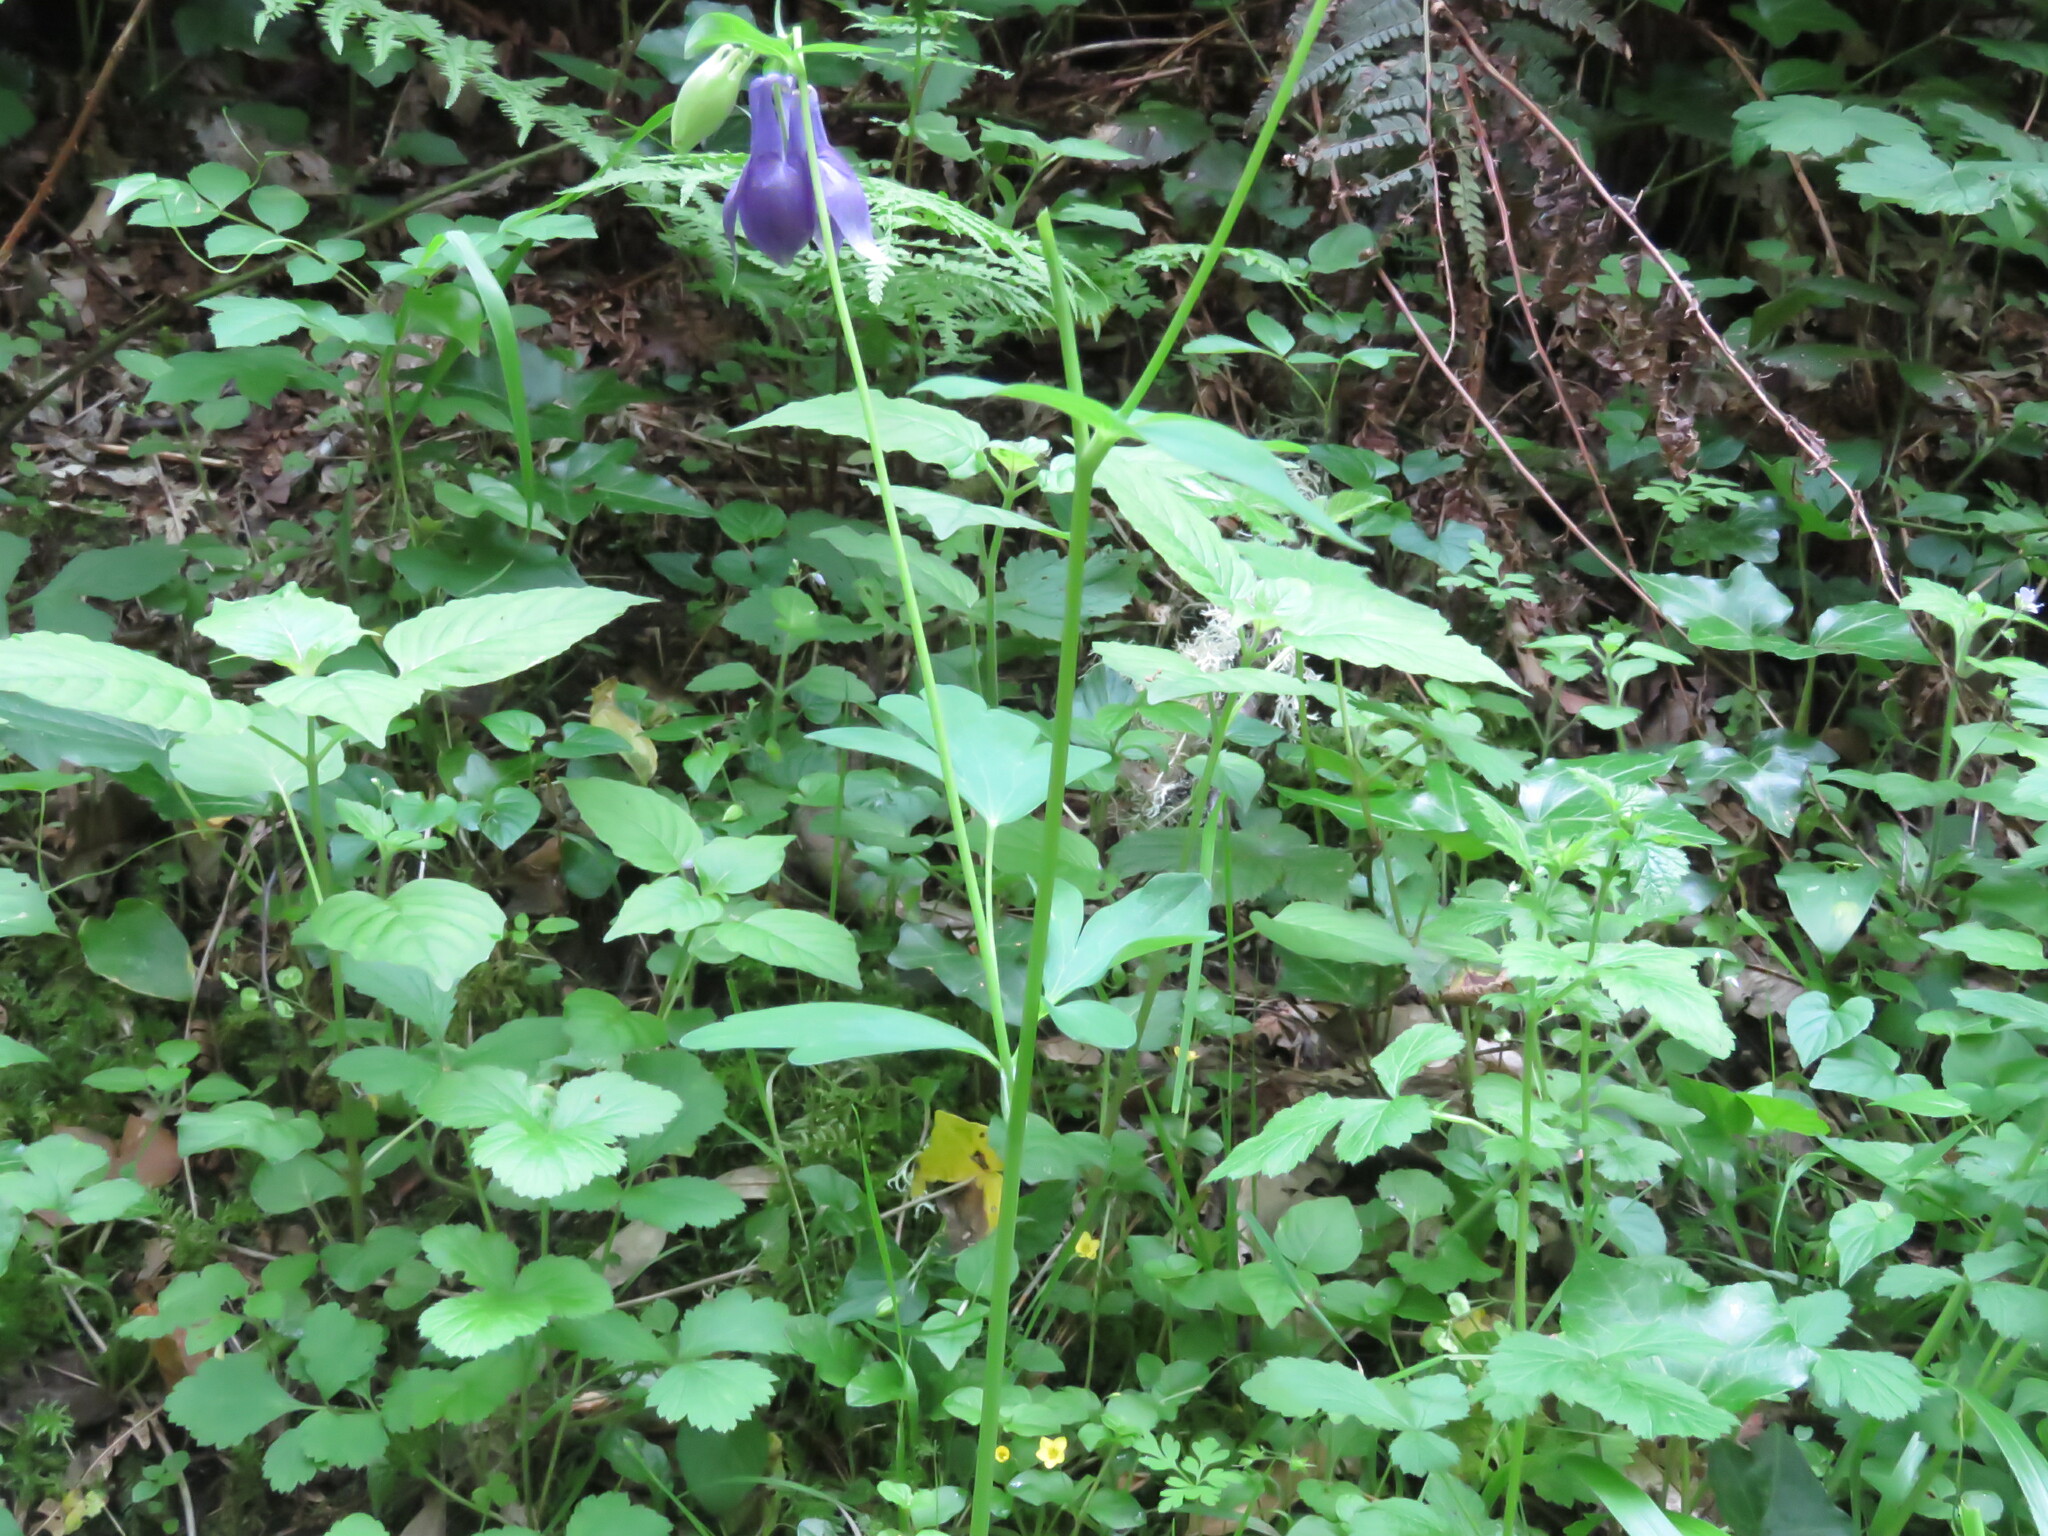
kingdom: Plantae
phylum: Tracheophyta
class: Magnoliopsida
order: Ranunculales
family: Ranunculaceae
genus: Aquilegia
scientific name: Aquilegia vulgaris
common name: Columbine
